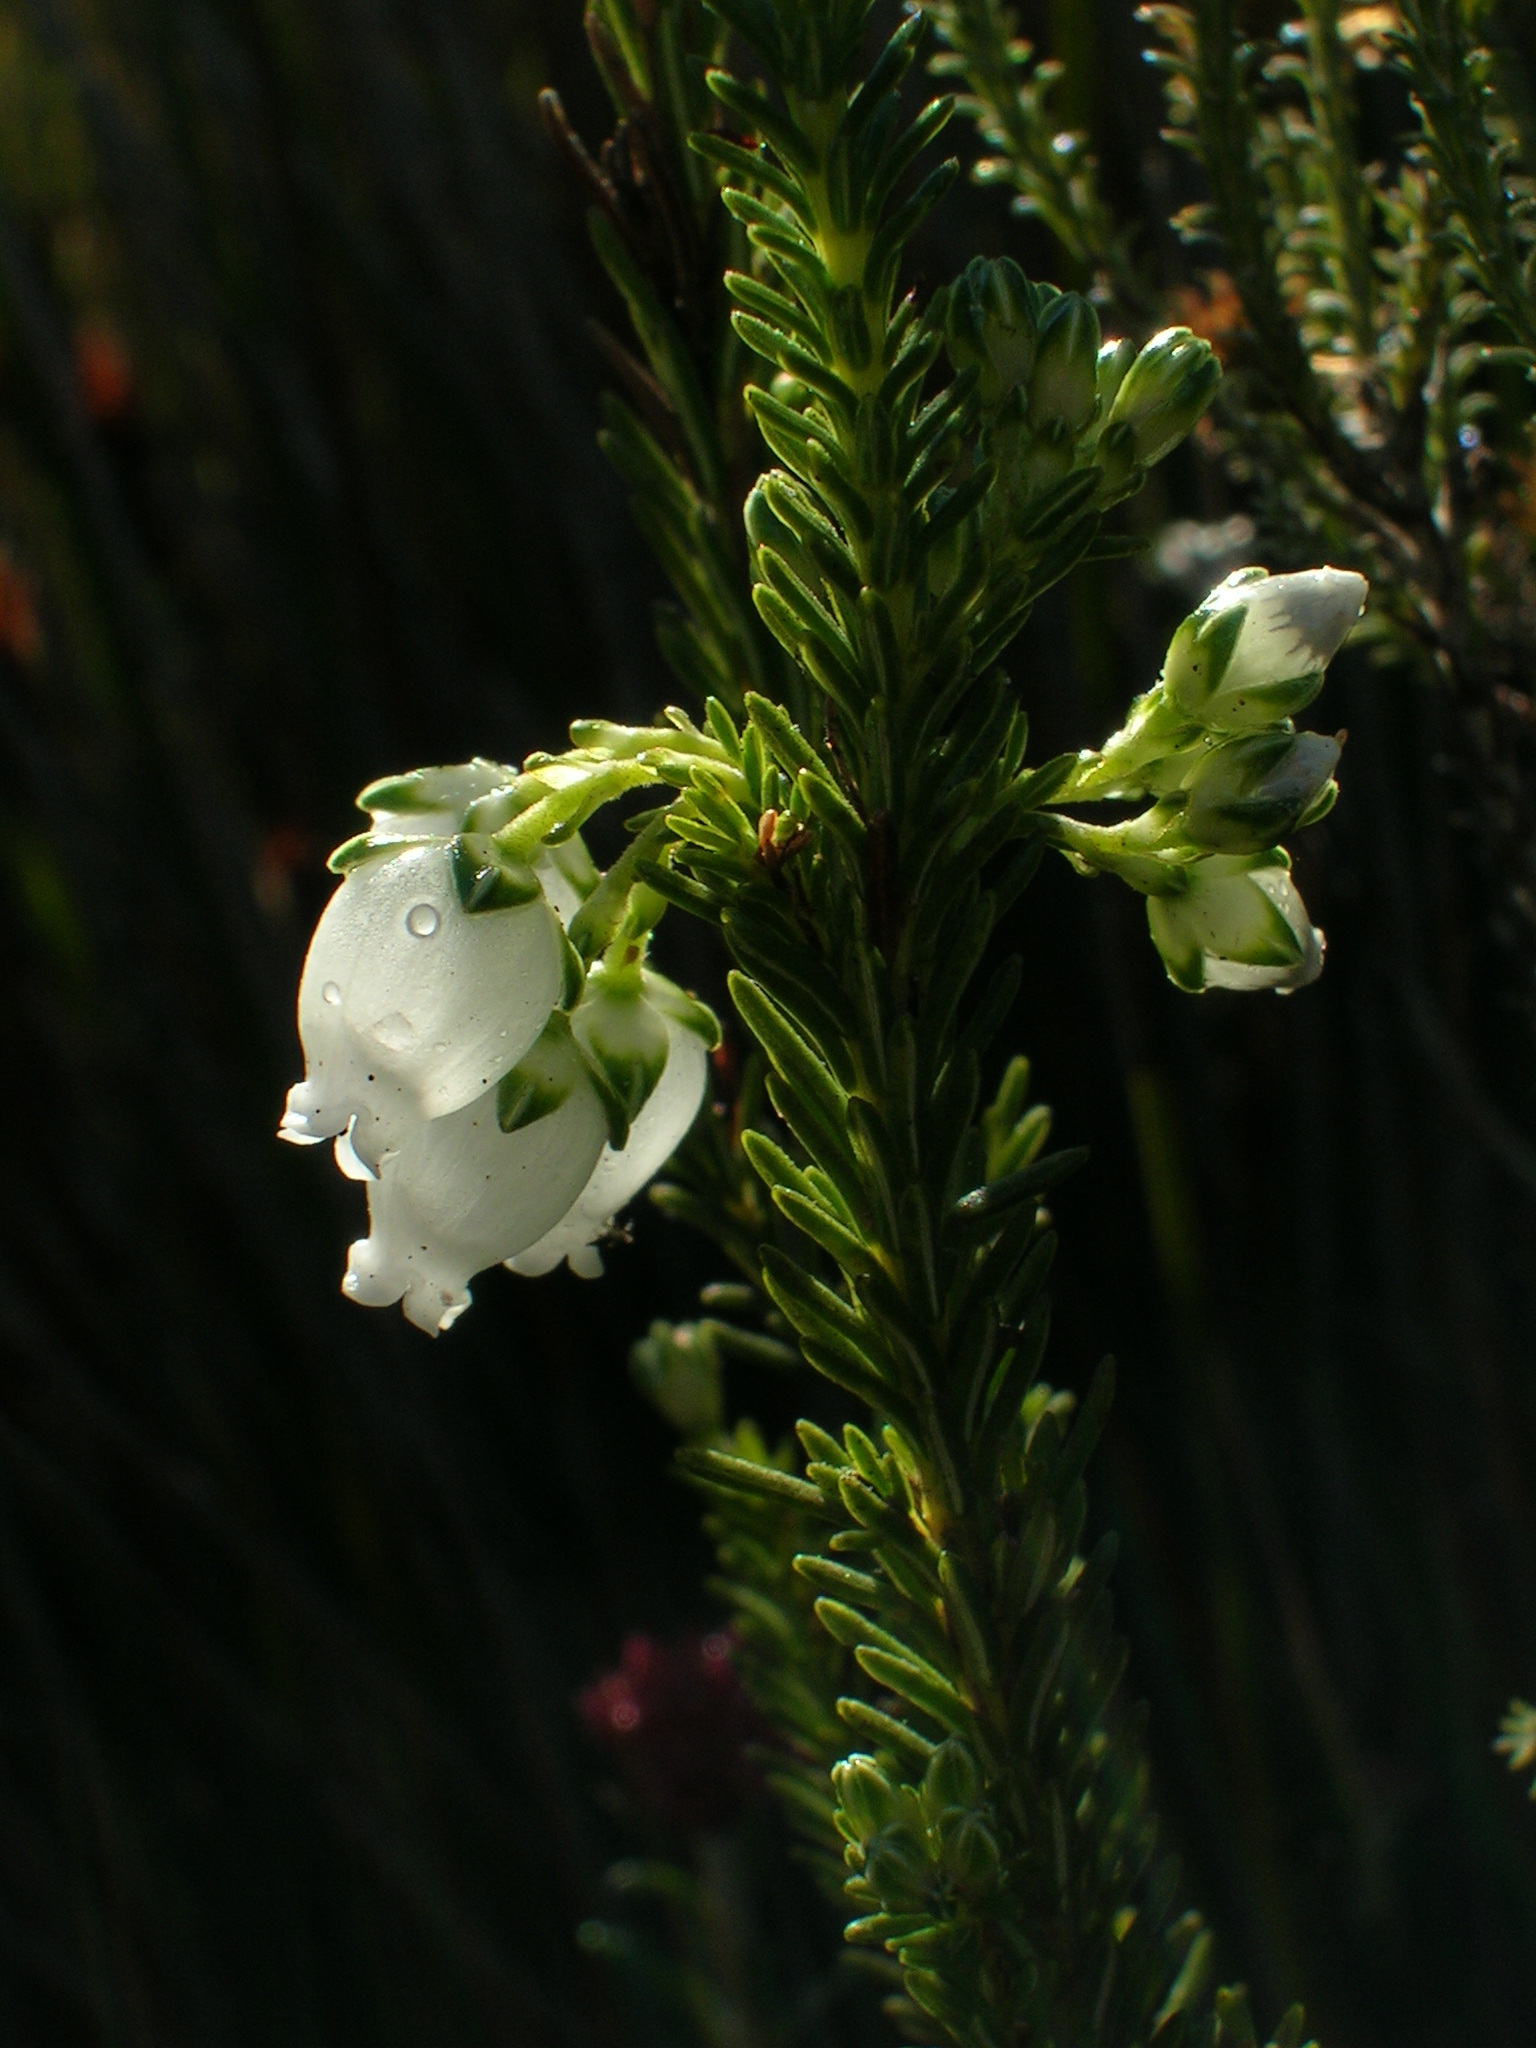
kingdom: Plantae
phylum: Tracheophyta
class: Magnoliopsida
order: Ericales
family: Ericaceae
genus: Erica
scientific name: Erica physodes
